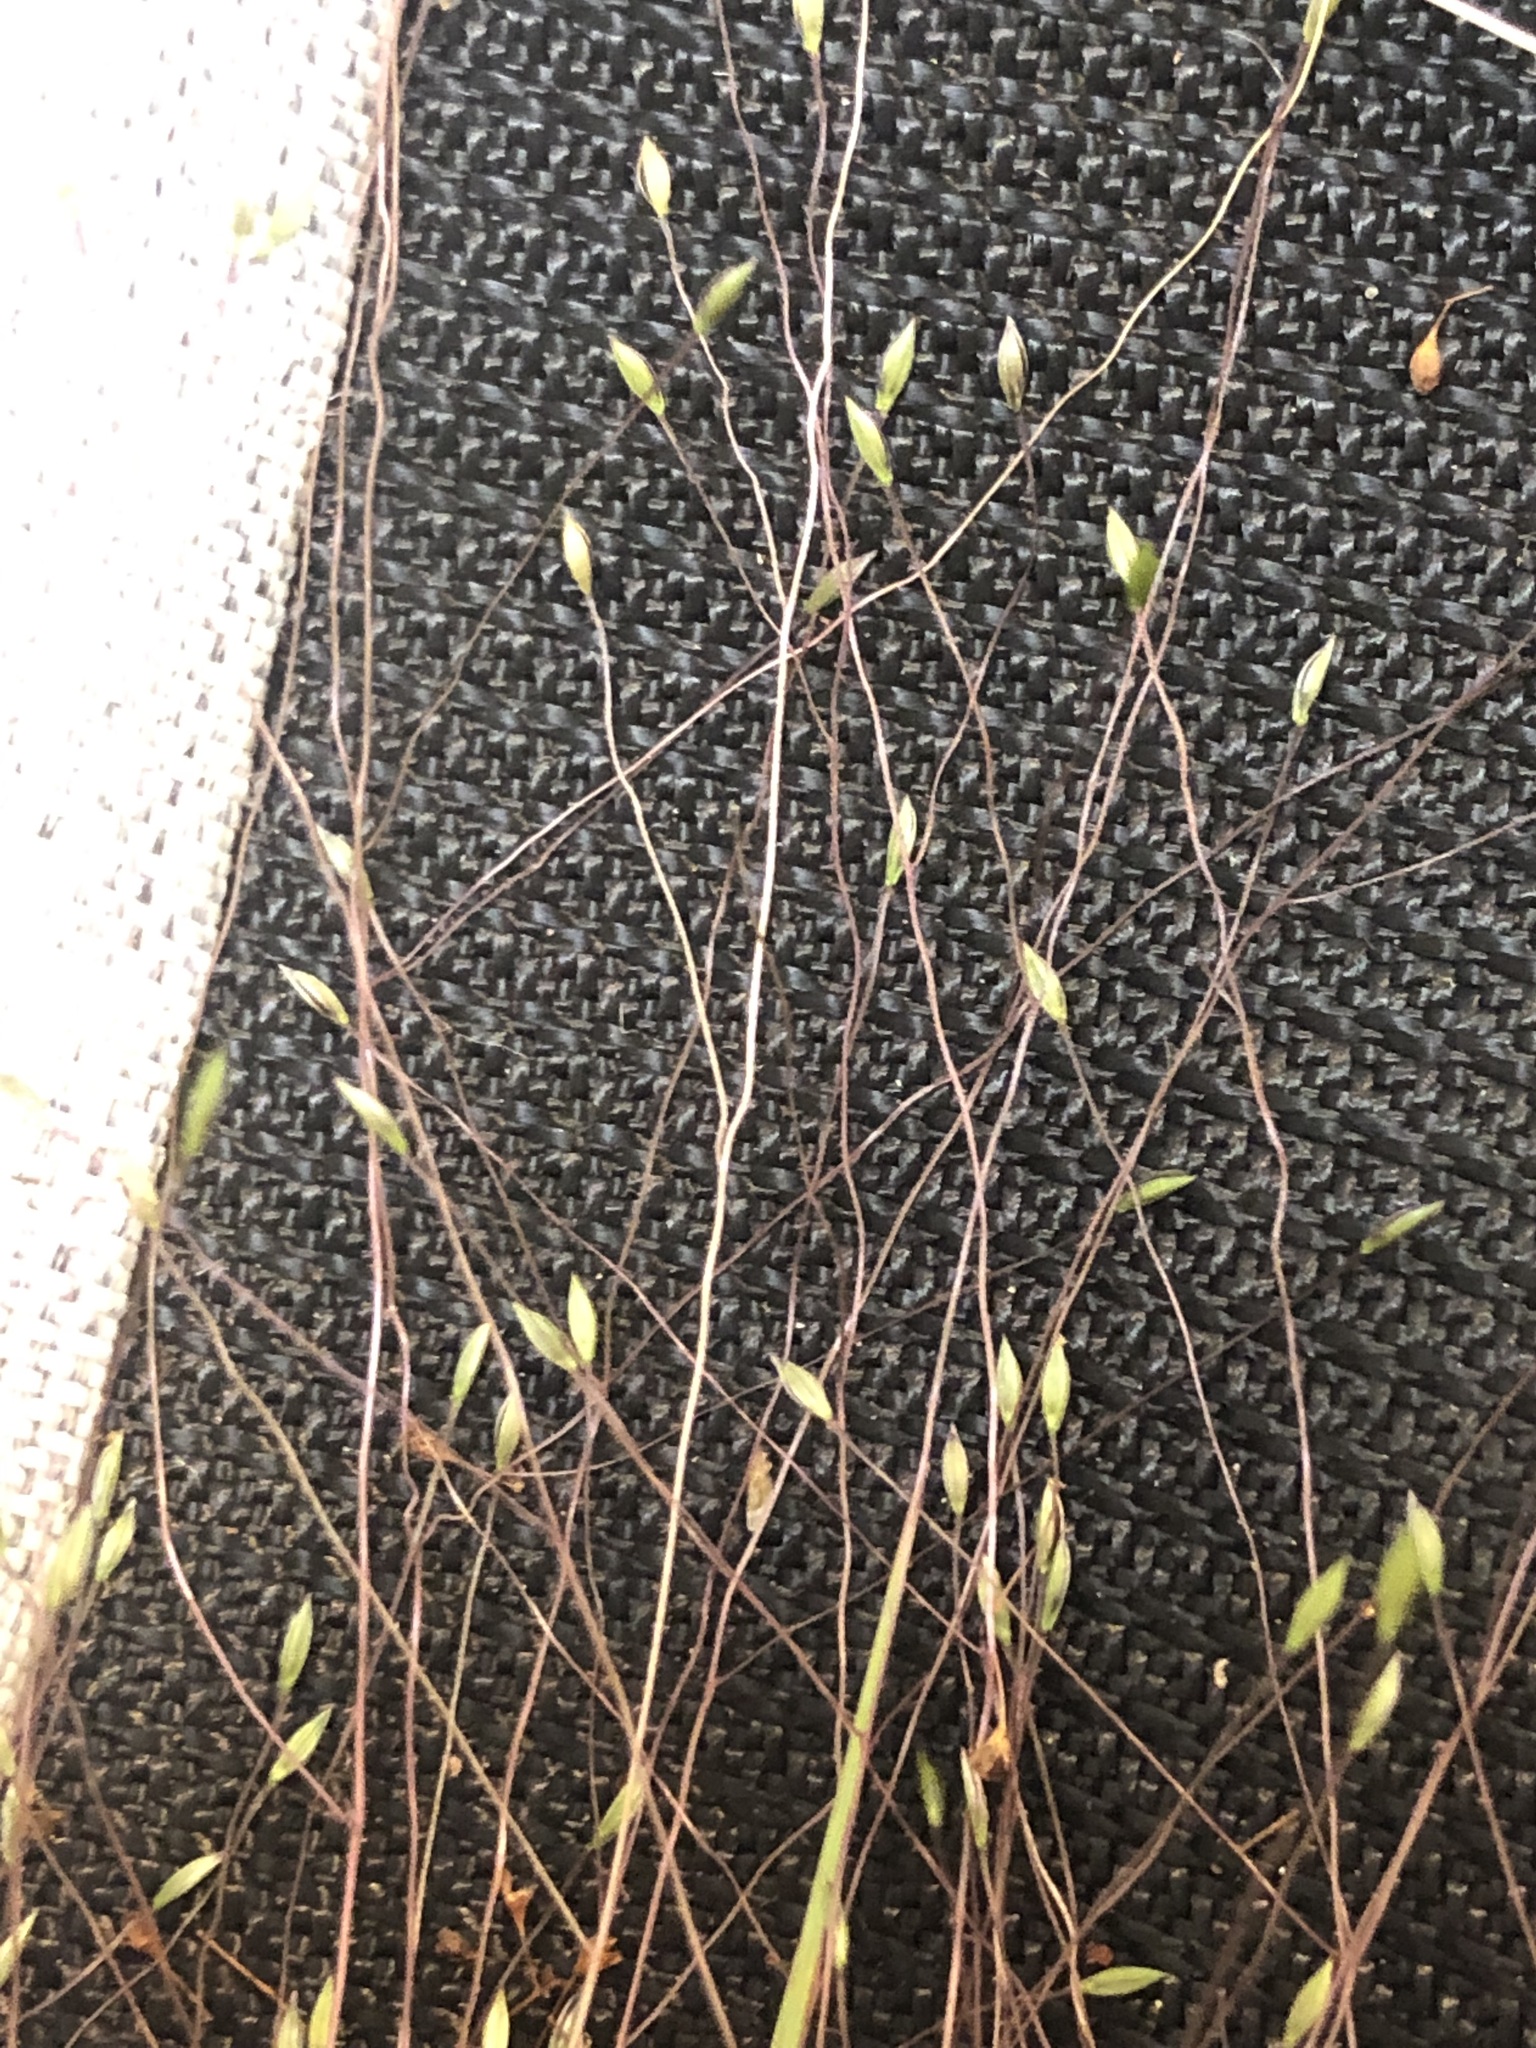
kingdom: Plantae
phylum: Tracheophyta
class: Liliopsida
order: Poales
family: Poaceae
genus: Digitaria
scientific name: Digitaria cognata
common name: Fall witchgrass
